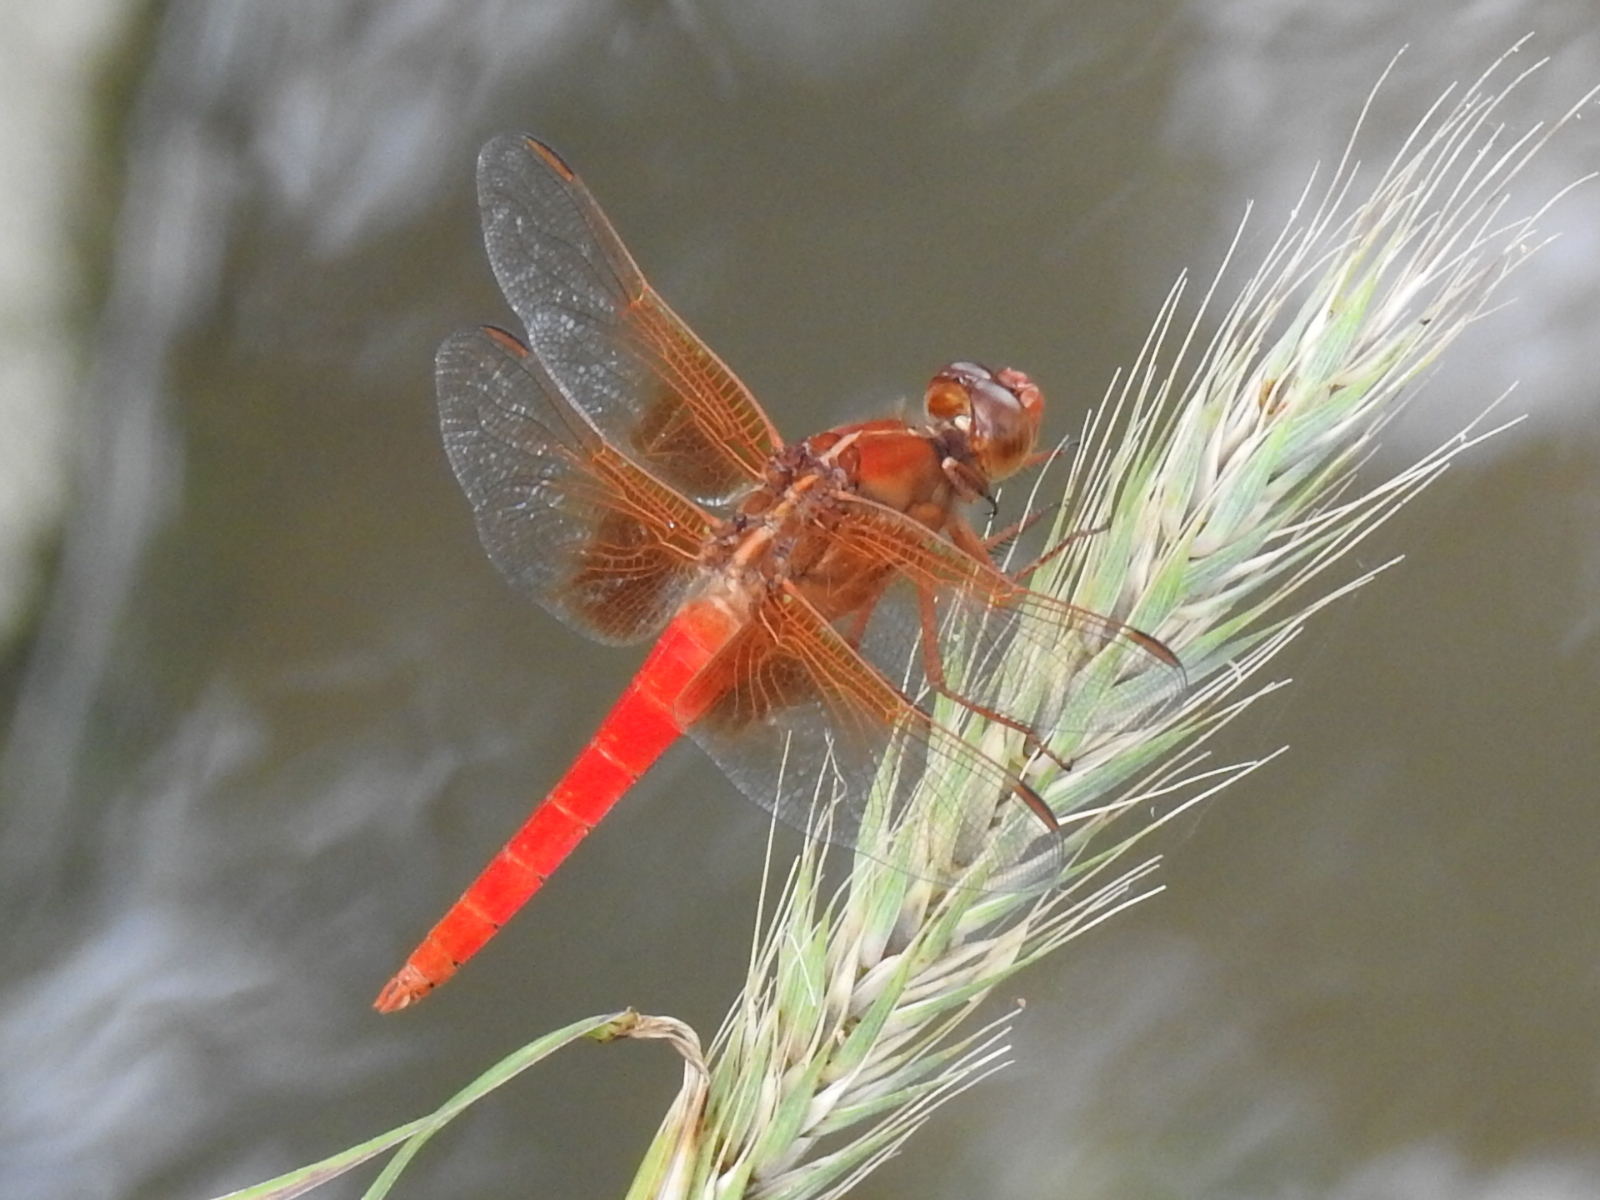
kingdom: Animalia
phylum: Arthropoda
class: Insecta
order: Odonata
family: Libellulidae
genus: Libellula
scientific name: Libellula croceipennis
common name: Neon skimmer
